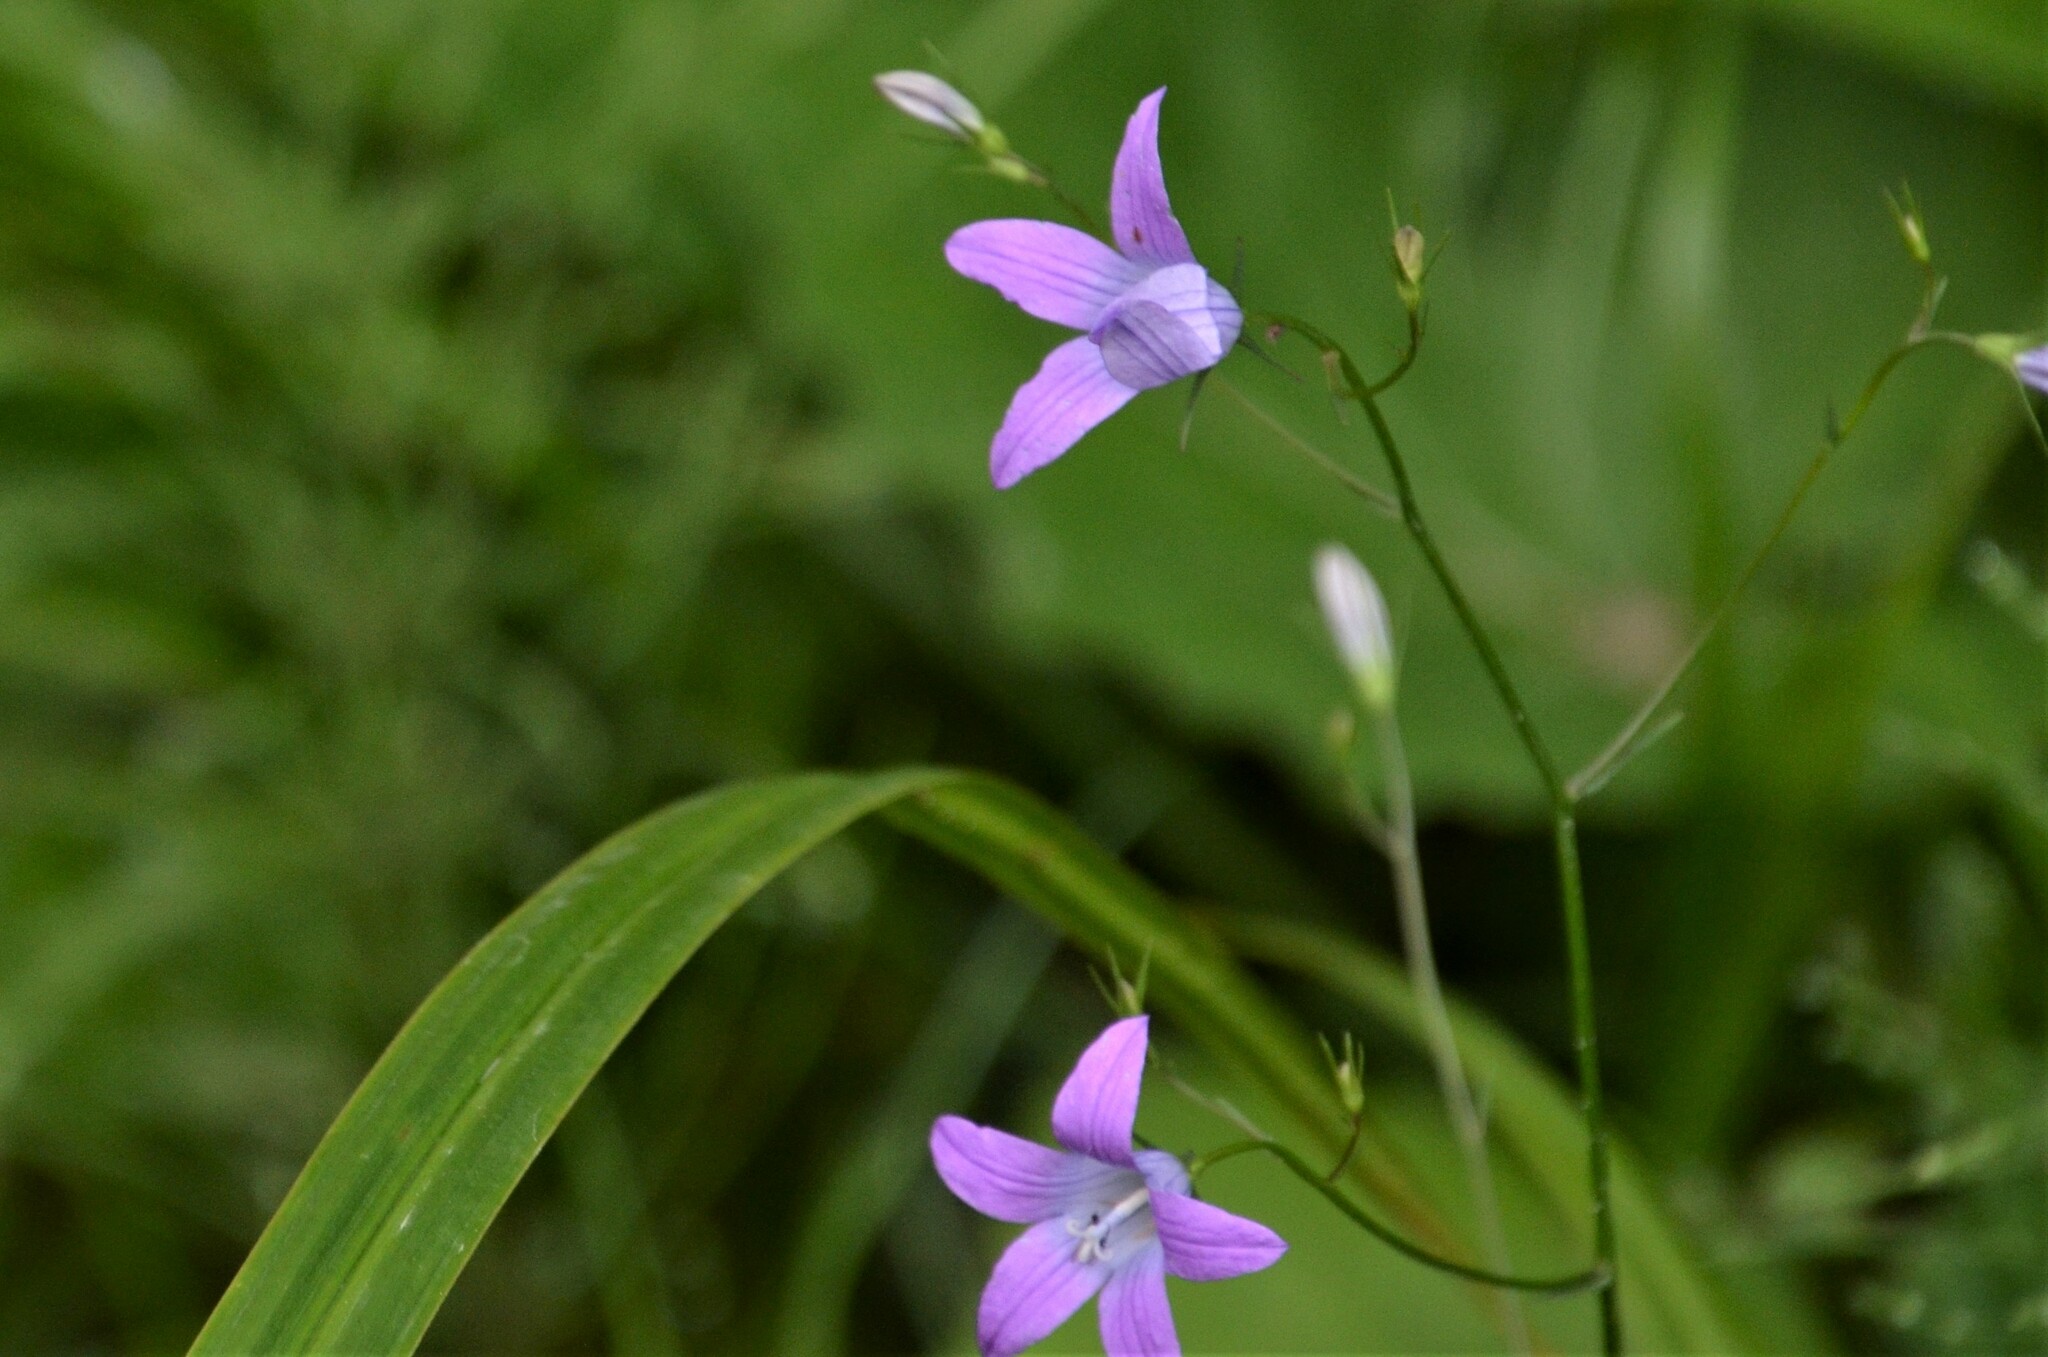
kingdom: Plantae
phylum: Tracheophyta
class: Magnoliopsida
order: Asterales
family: Campanulaceae
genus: Campanula
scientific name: Campanula patula
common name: Spreading bellflower
